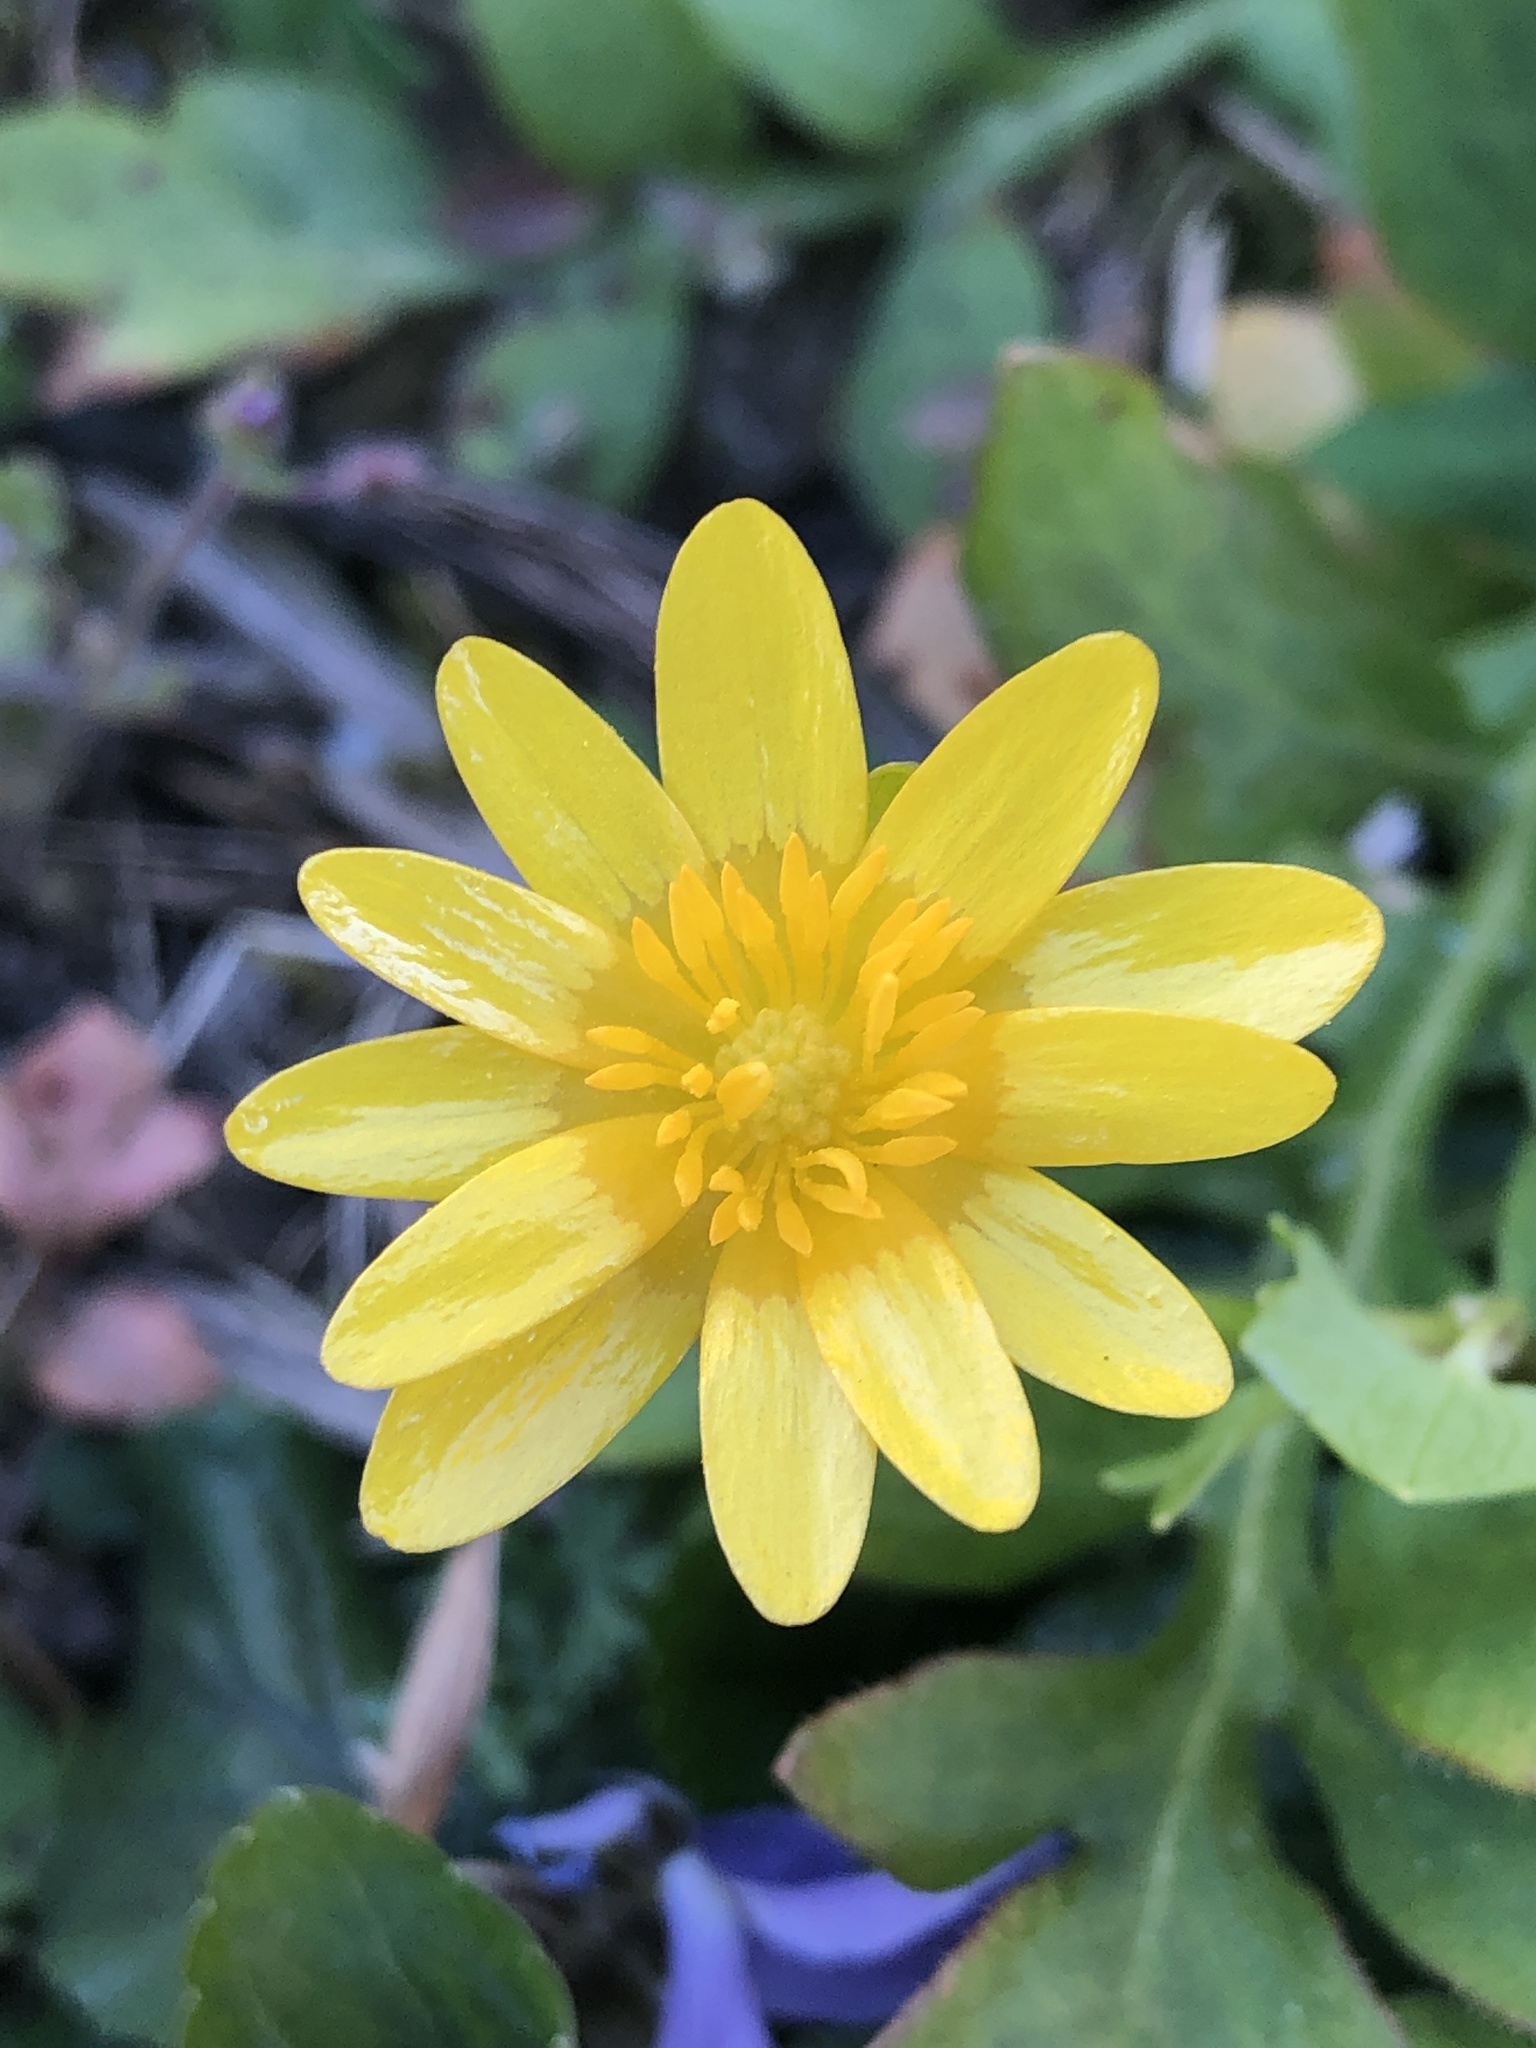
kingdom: Plantae
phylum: Tracheophyta
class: Magnoliopsida
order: Ranunculales
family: Ranunculaceae
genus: Ficaria
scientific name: Ficaria verna
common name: Lesser celandine
